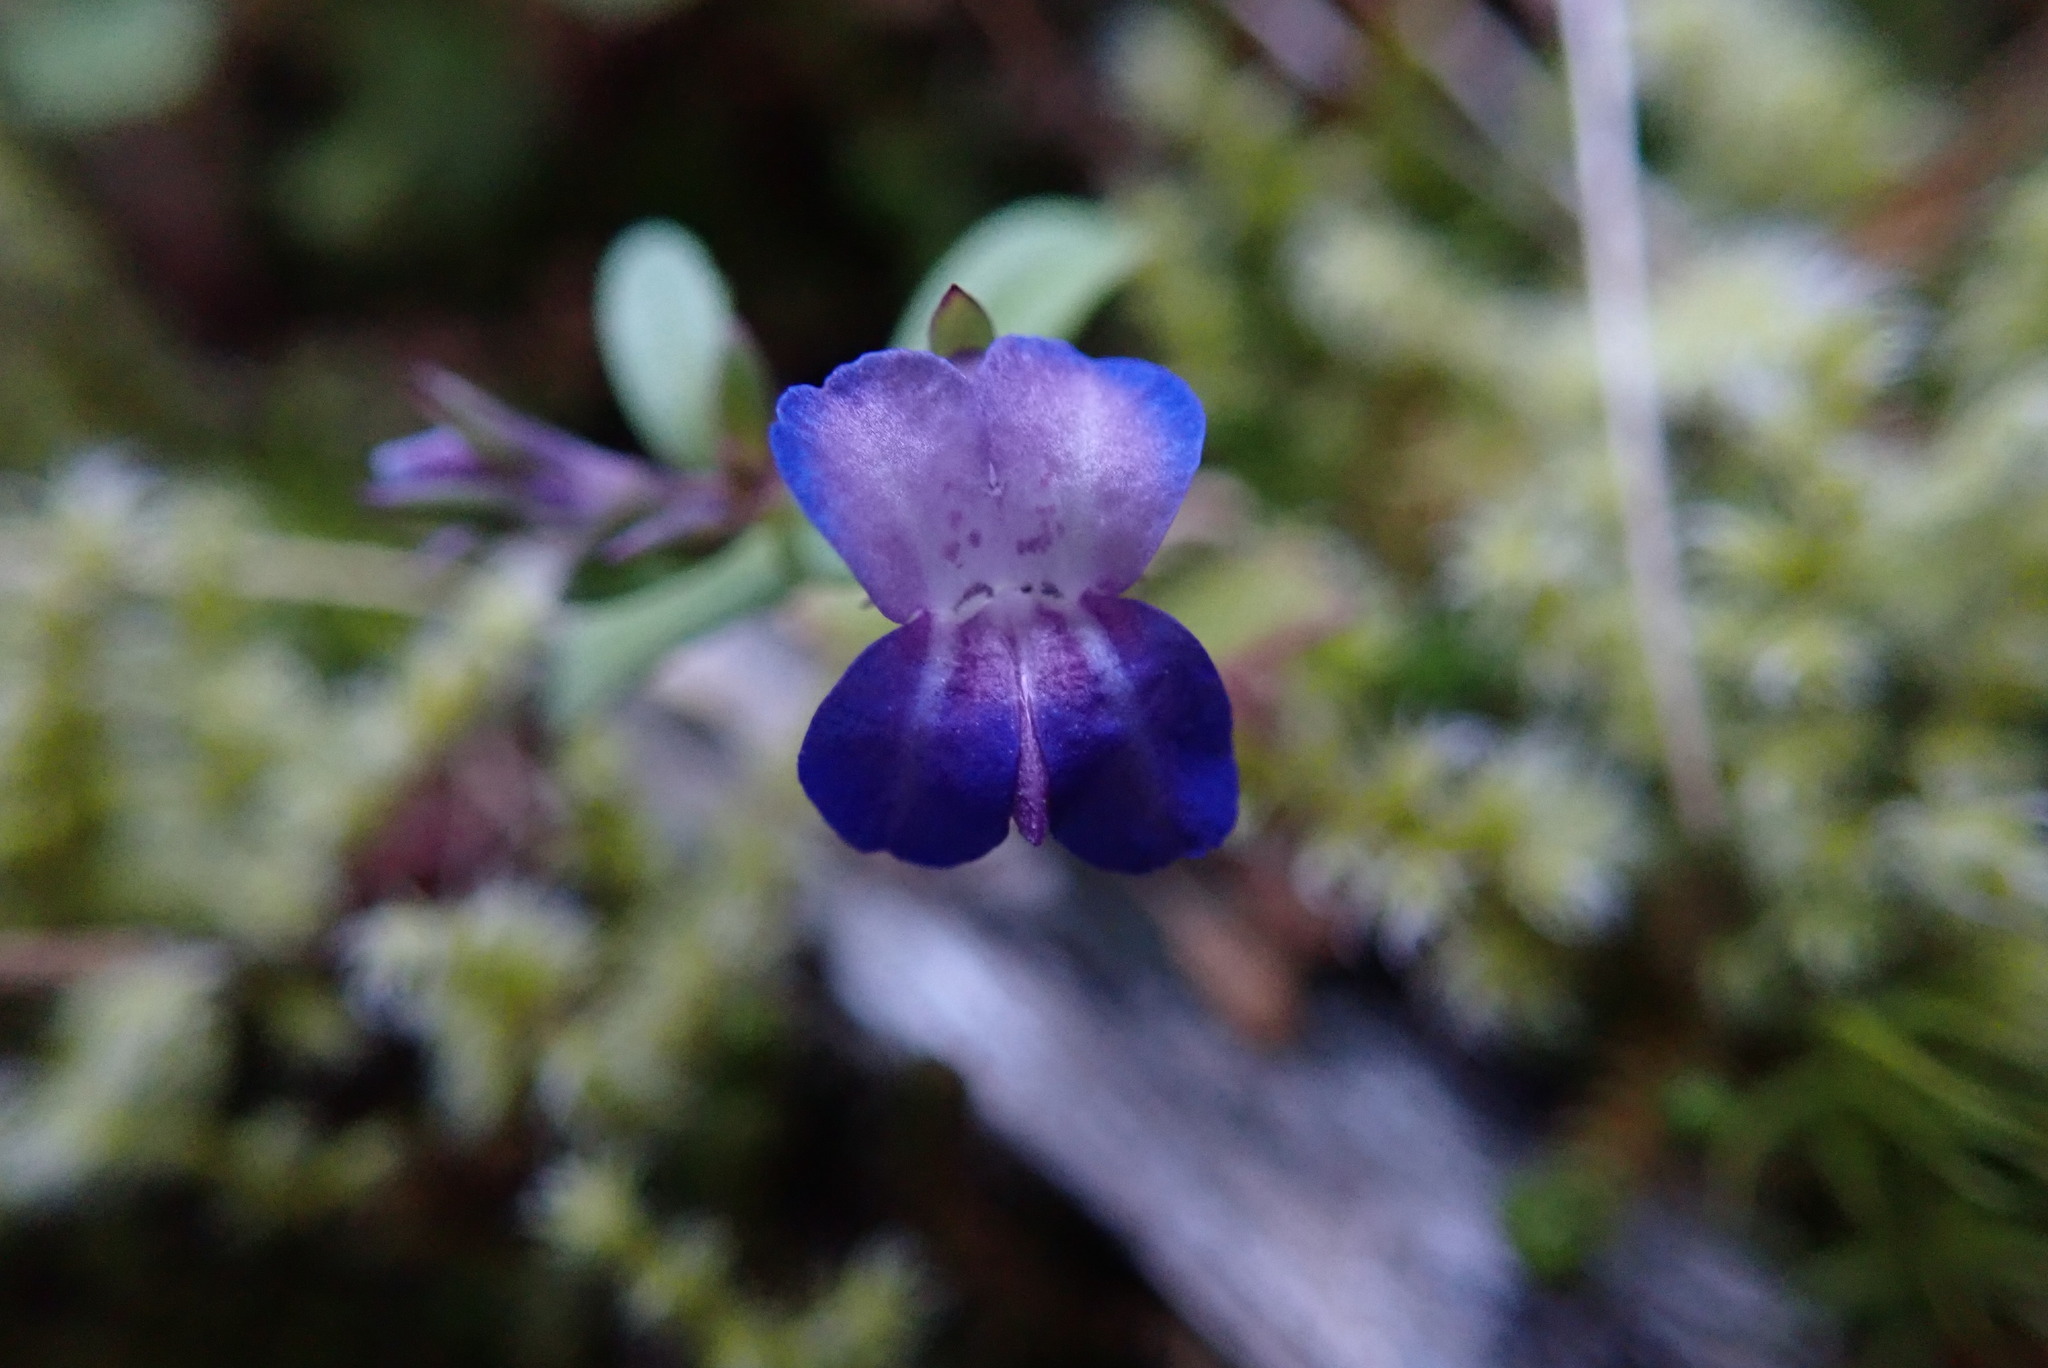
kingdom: Plantae
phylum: Tracheophyta
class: Magnoliopsida
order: Lamiales
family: Plantaginaceae
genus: Collinsia
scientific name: Collinsia parviflora
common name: Blue-lips
